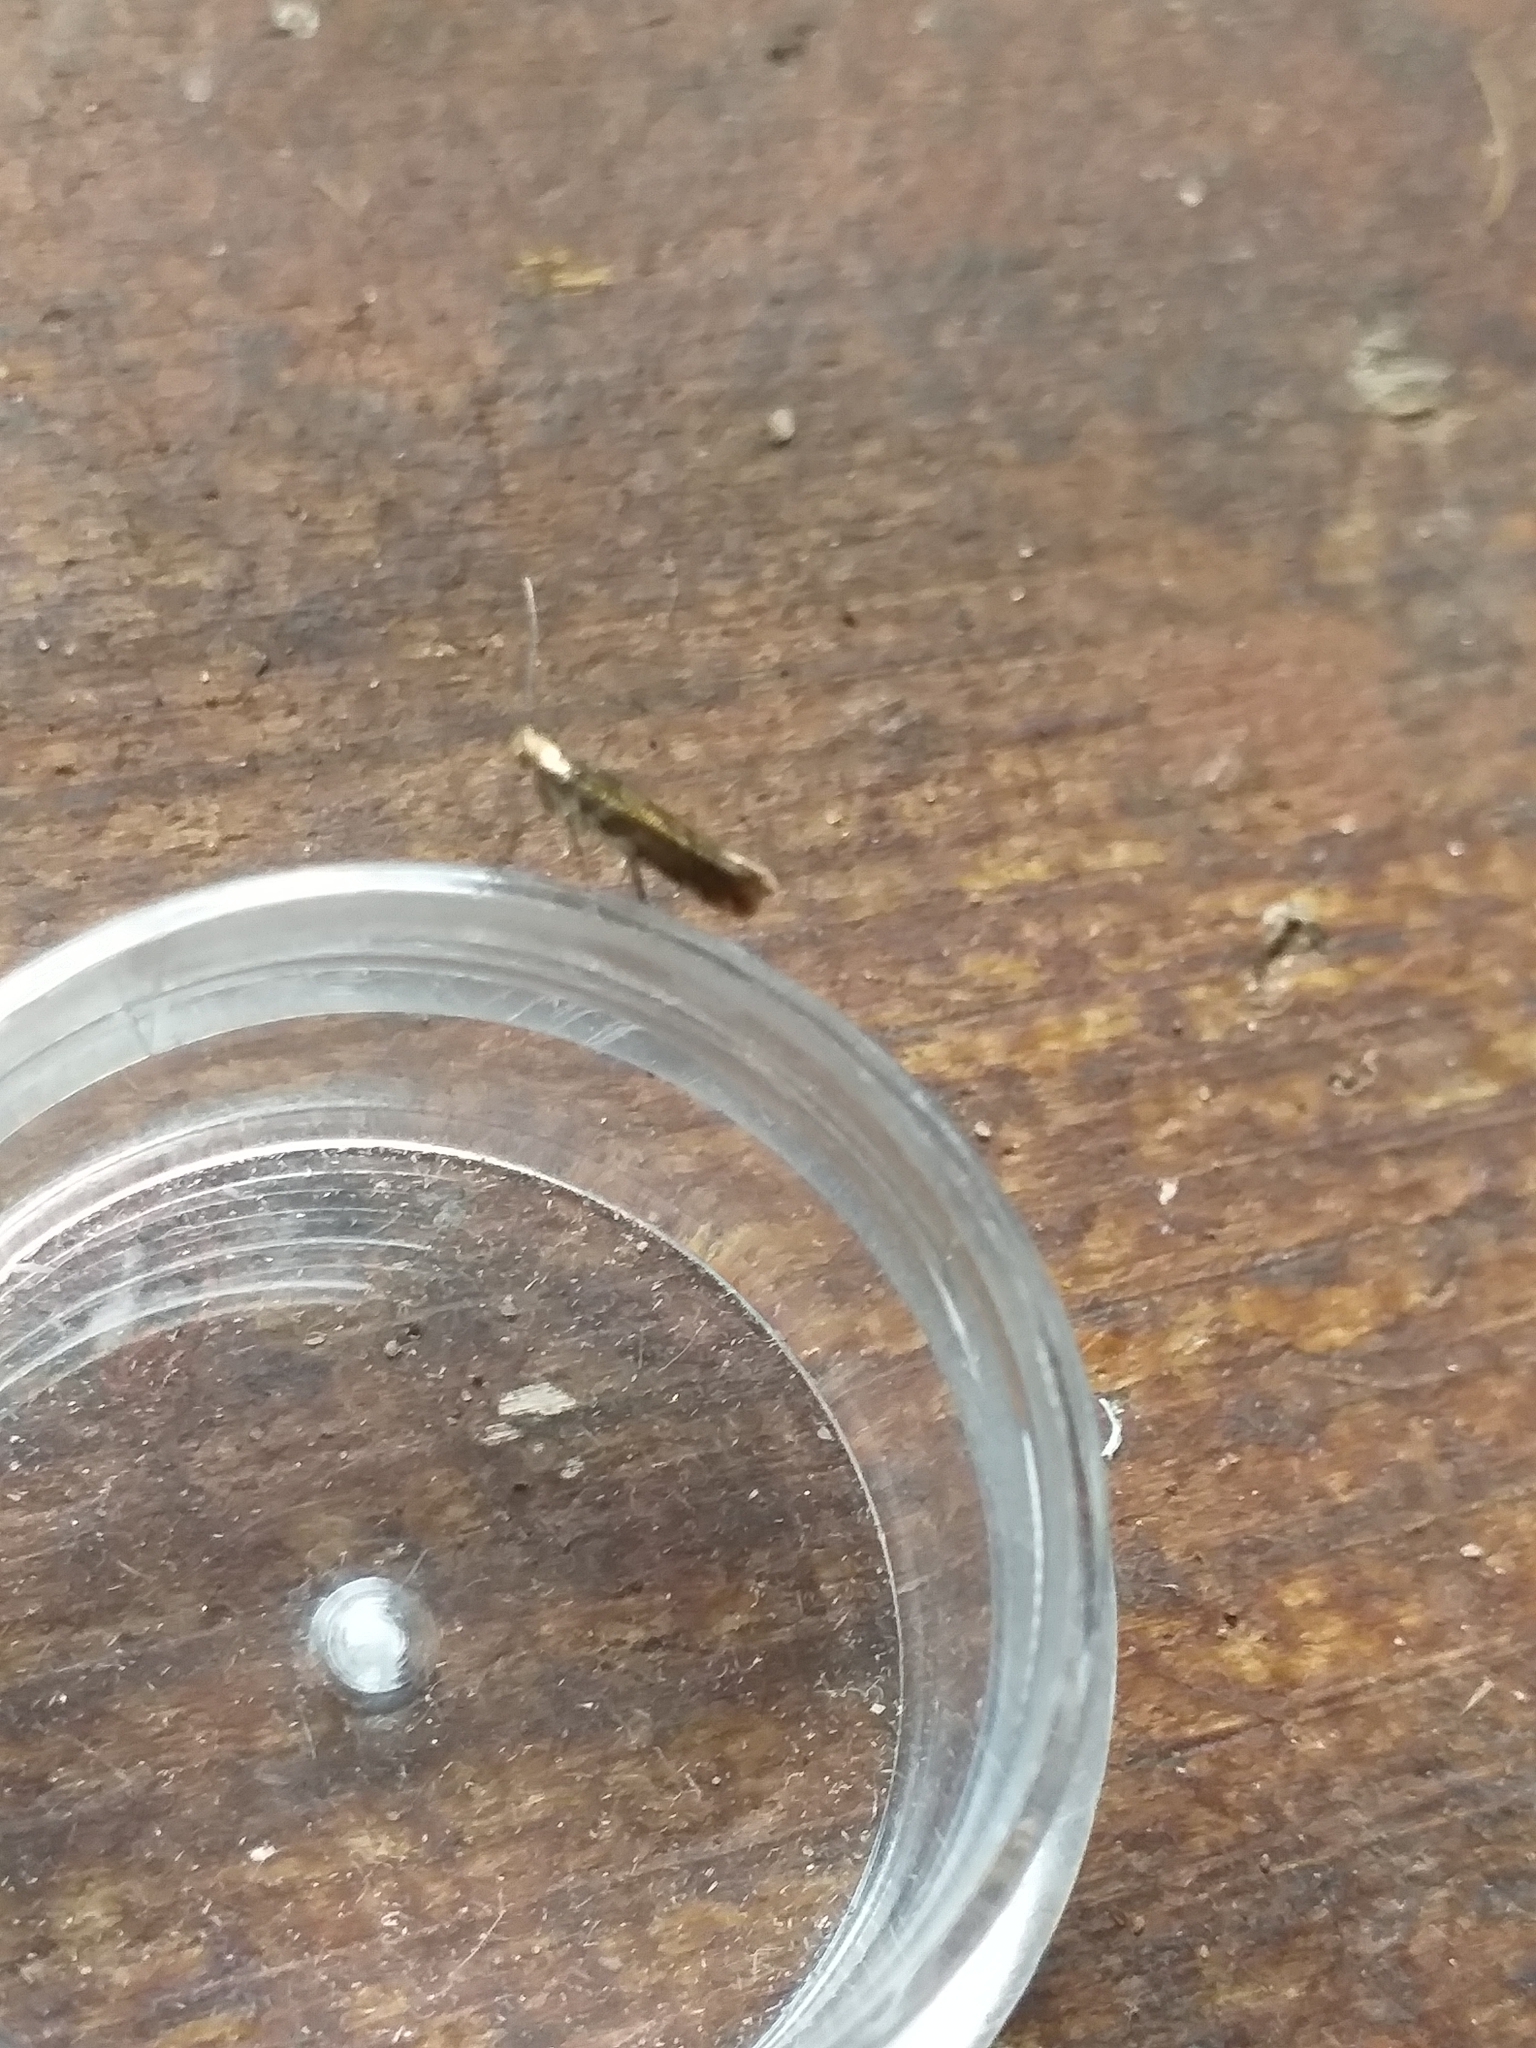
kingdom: Animalia
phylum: Arthropoda
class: Insecta
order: Lepidoptera
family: Argyresthiidae
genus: Argyresthia
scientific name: Argyresthia goedartella
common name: Golden argent
